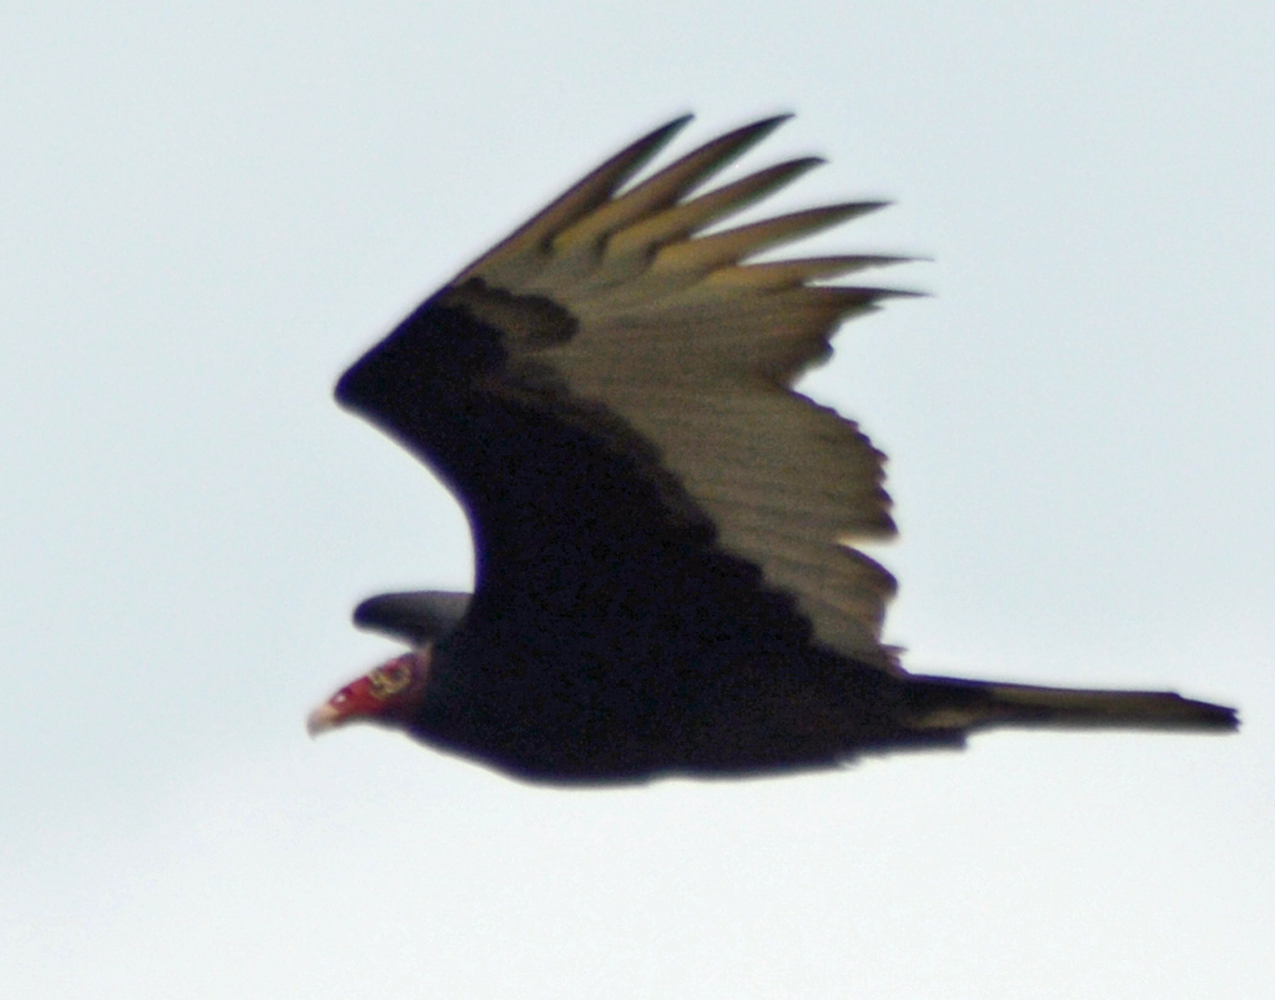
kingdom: Animalia
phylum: Chordata
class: Aves
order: Accipitriformes
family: Cathartidae
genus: Cathartes
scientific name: Cathartes aura
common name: Turkey vulture
